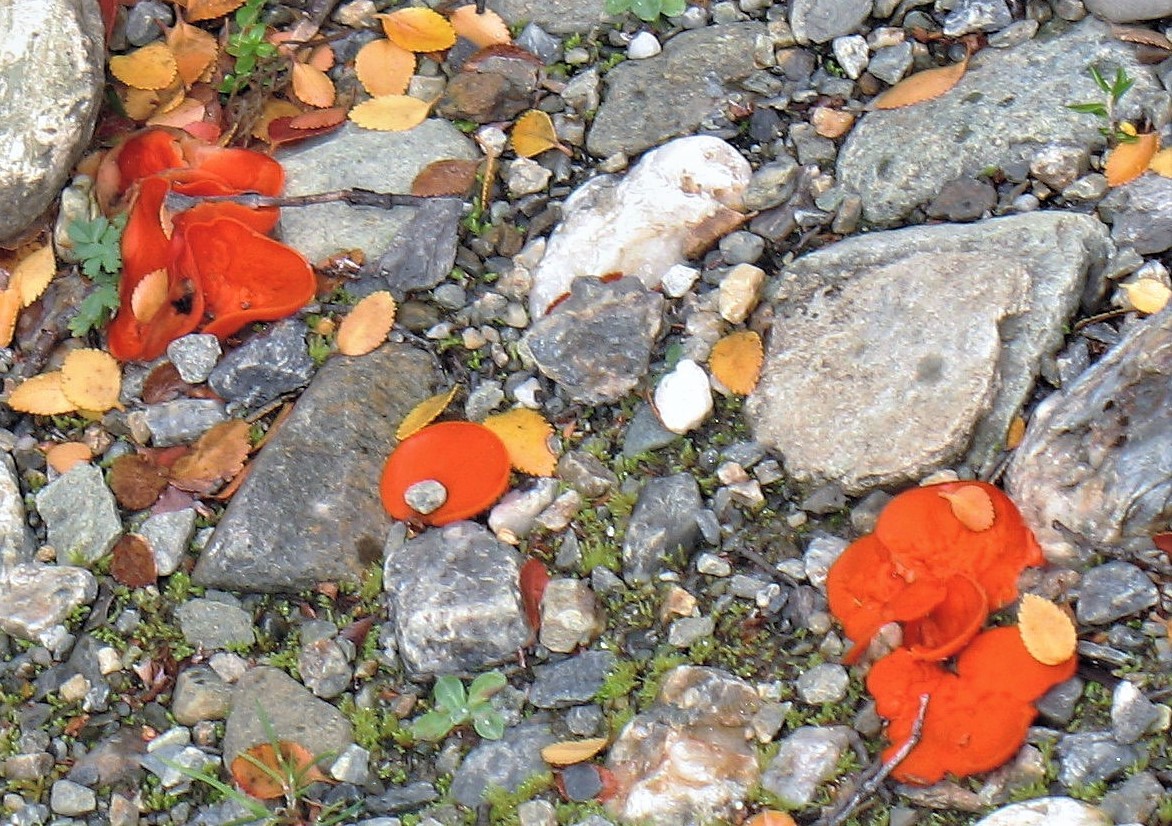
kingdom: Fungi
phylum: Ascomycota
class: Pezizomycetes
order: Pezizales
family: Pyronemataceae
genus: Aleuria
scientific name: Aleuria aurantia
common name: Orange peel fungus
